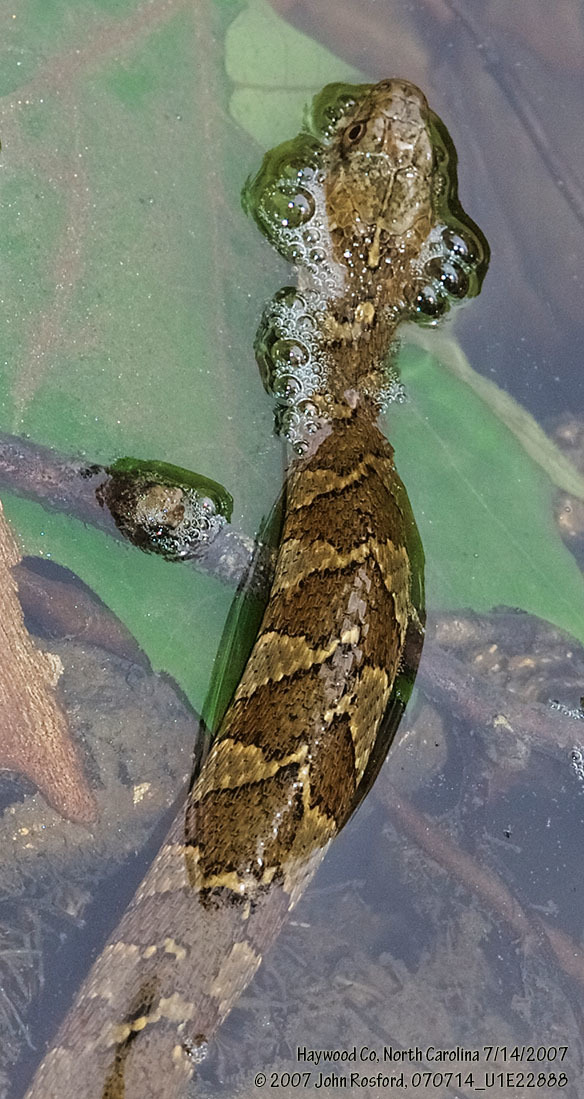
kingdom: Animalia
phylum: Chordata
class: Squamata
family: Colubridae
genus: Nerodia
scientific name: Nerodia sipedon
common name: Northern water snake
